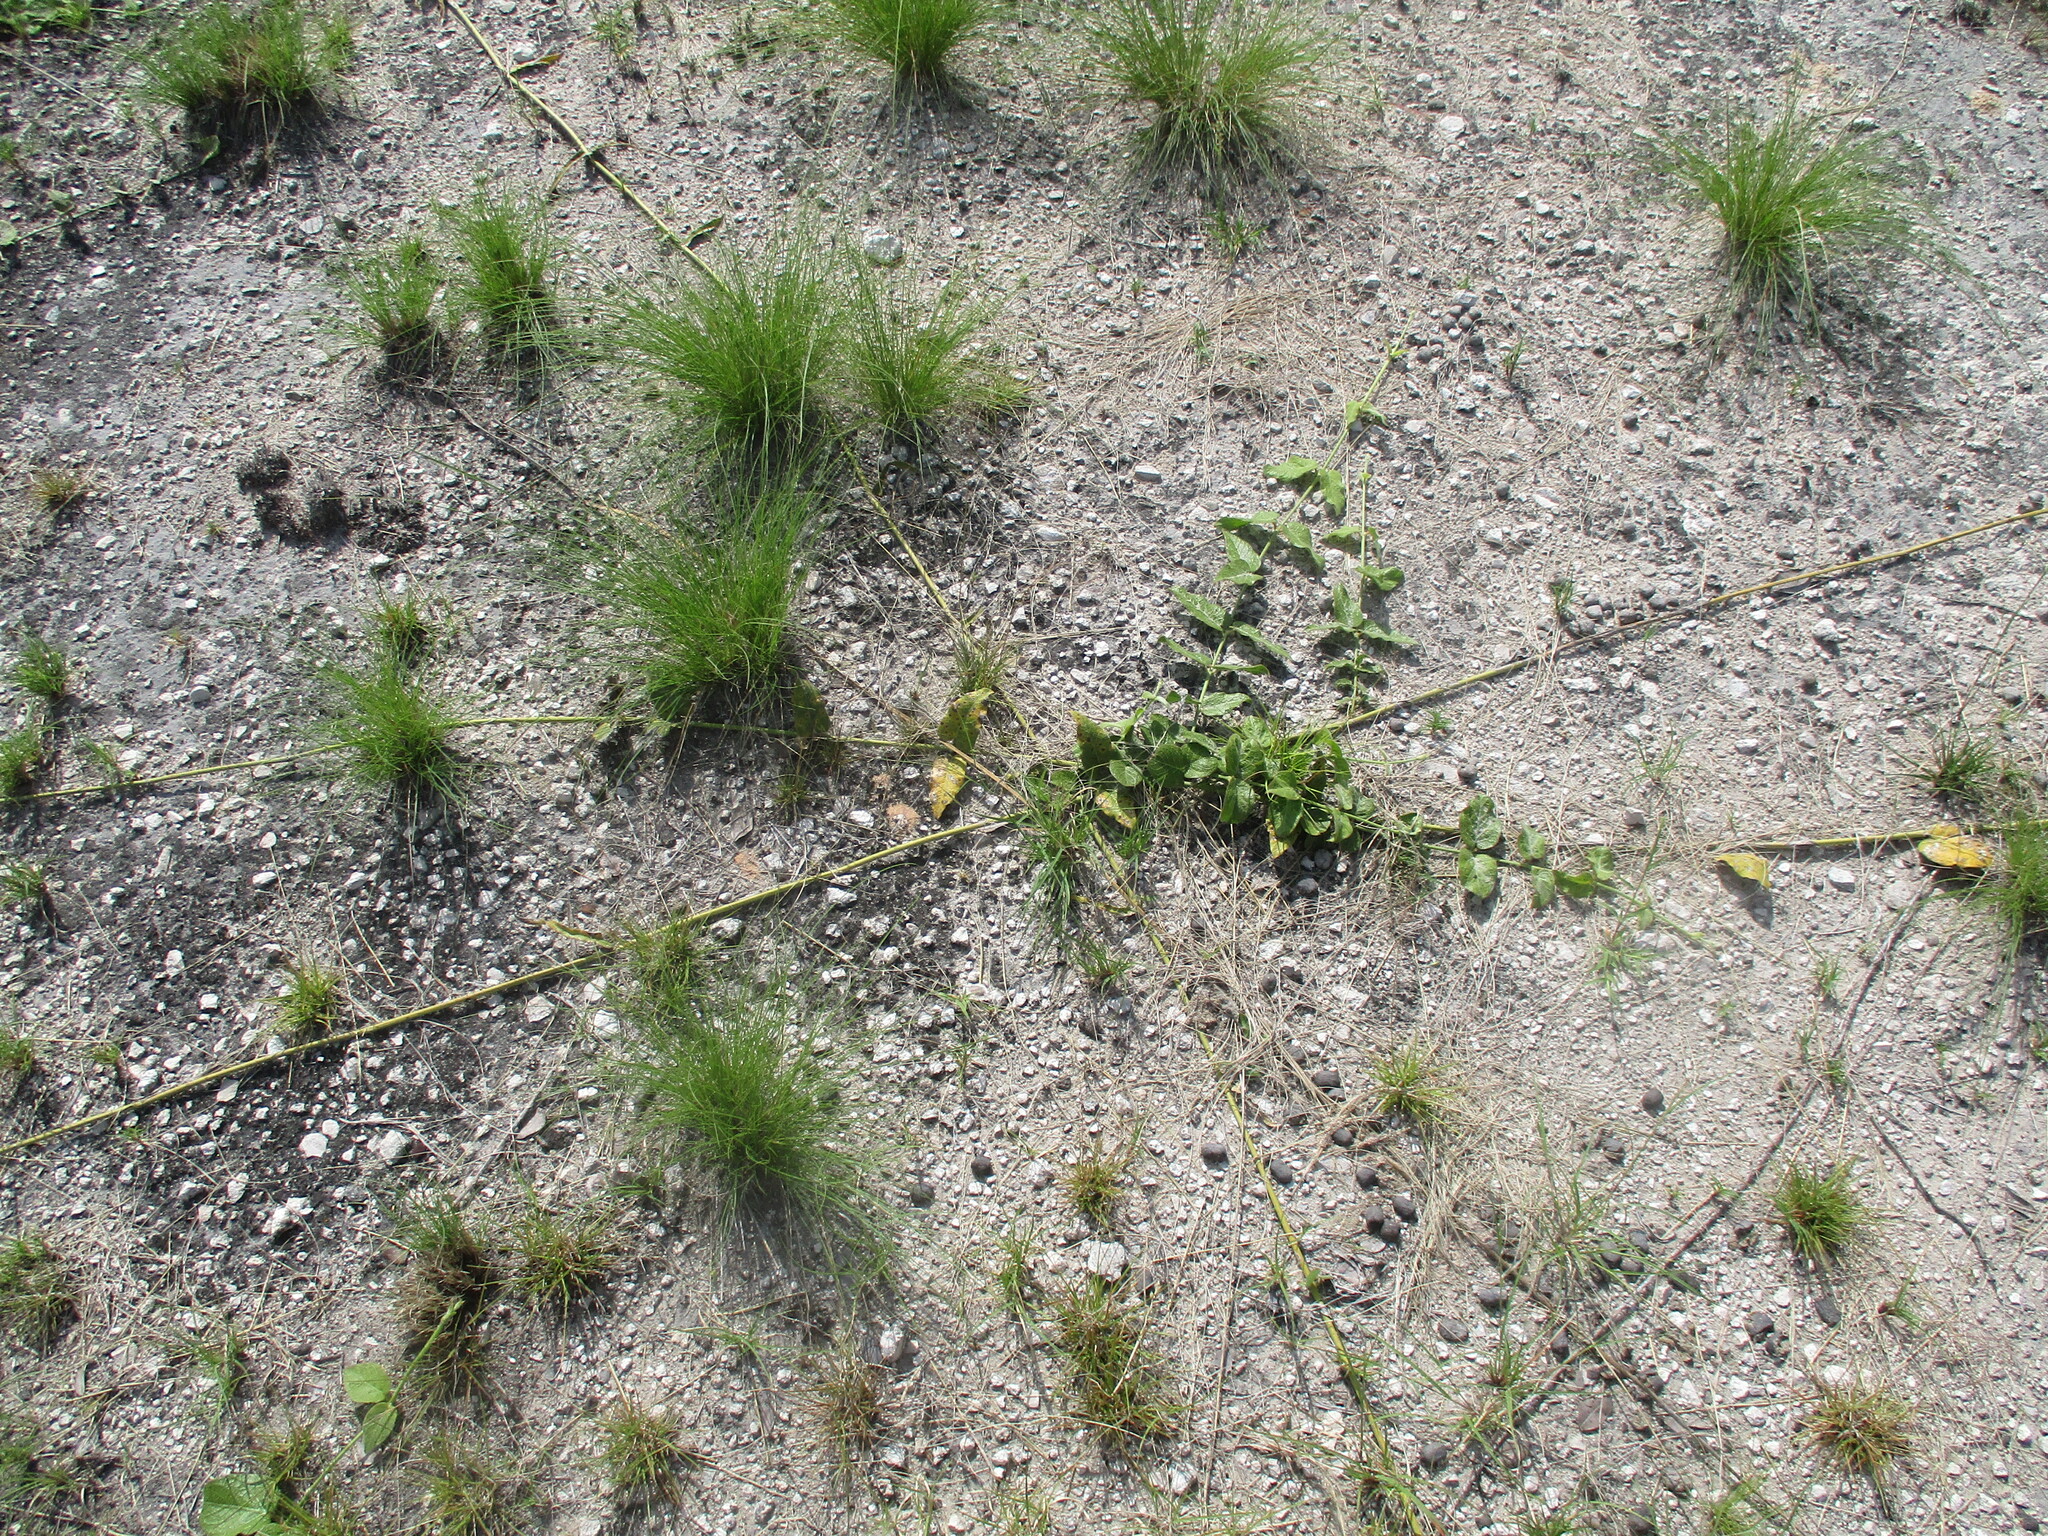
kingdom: Plantae
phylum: Tracheophyta
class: Magnoliopsida
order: Gentianales
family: Apocynaceae
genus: Orthanthera
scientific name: Orthanthera jasminiflora
